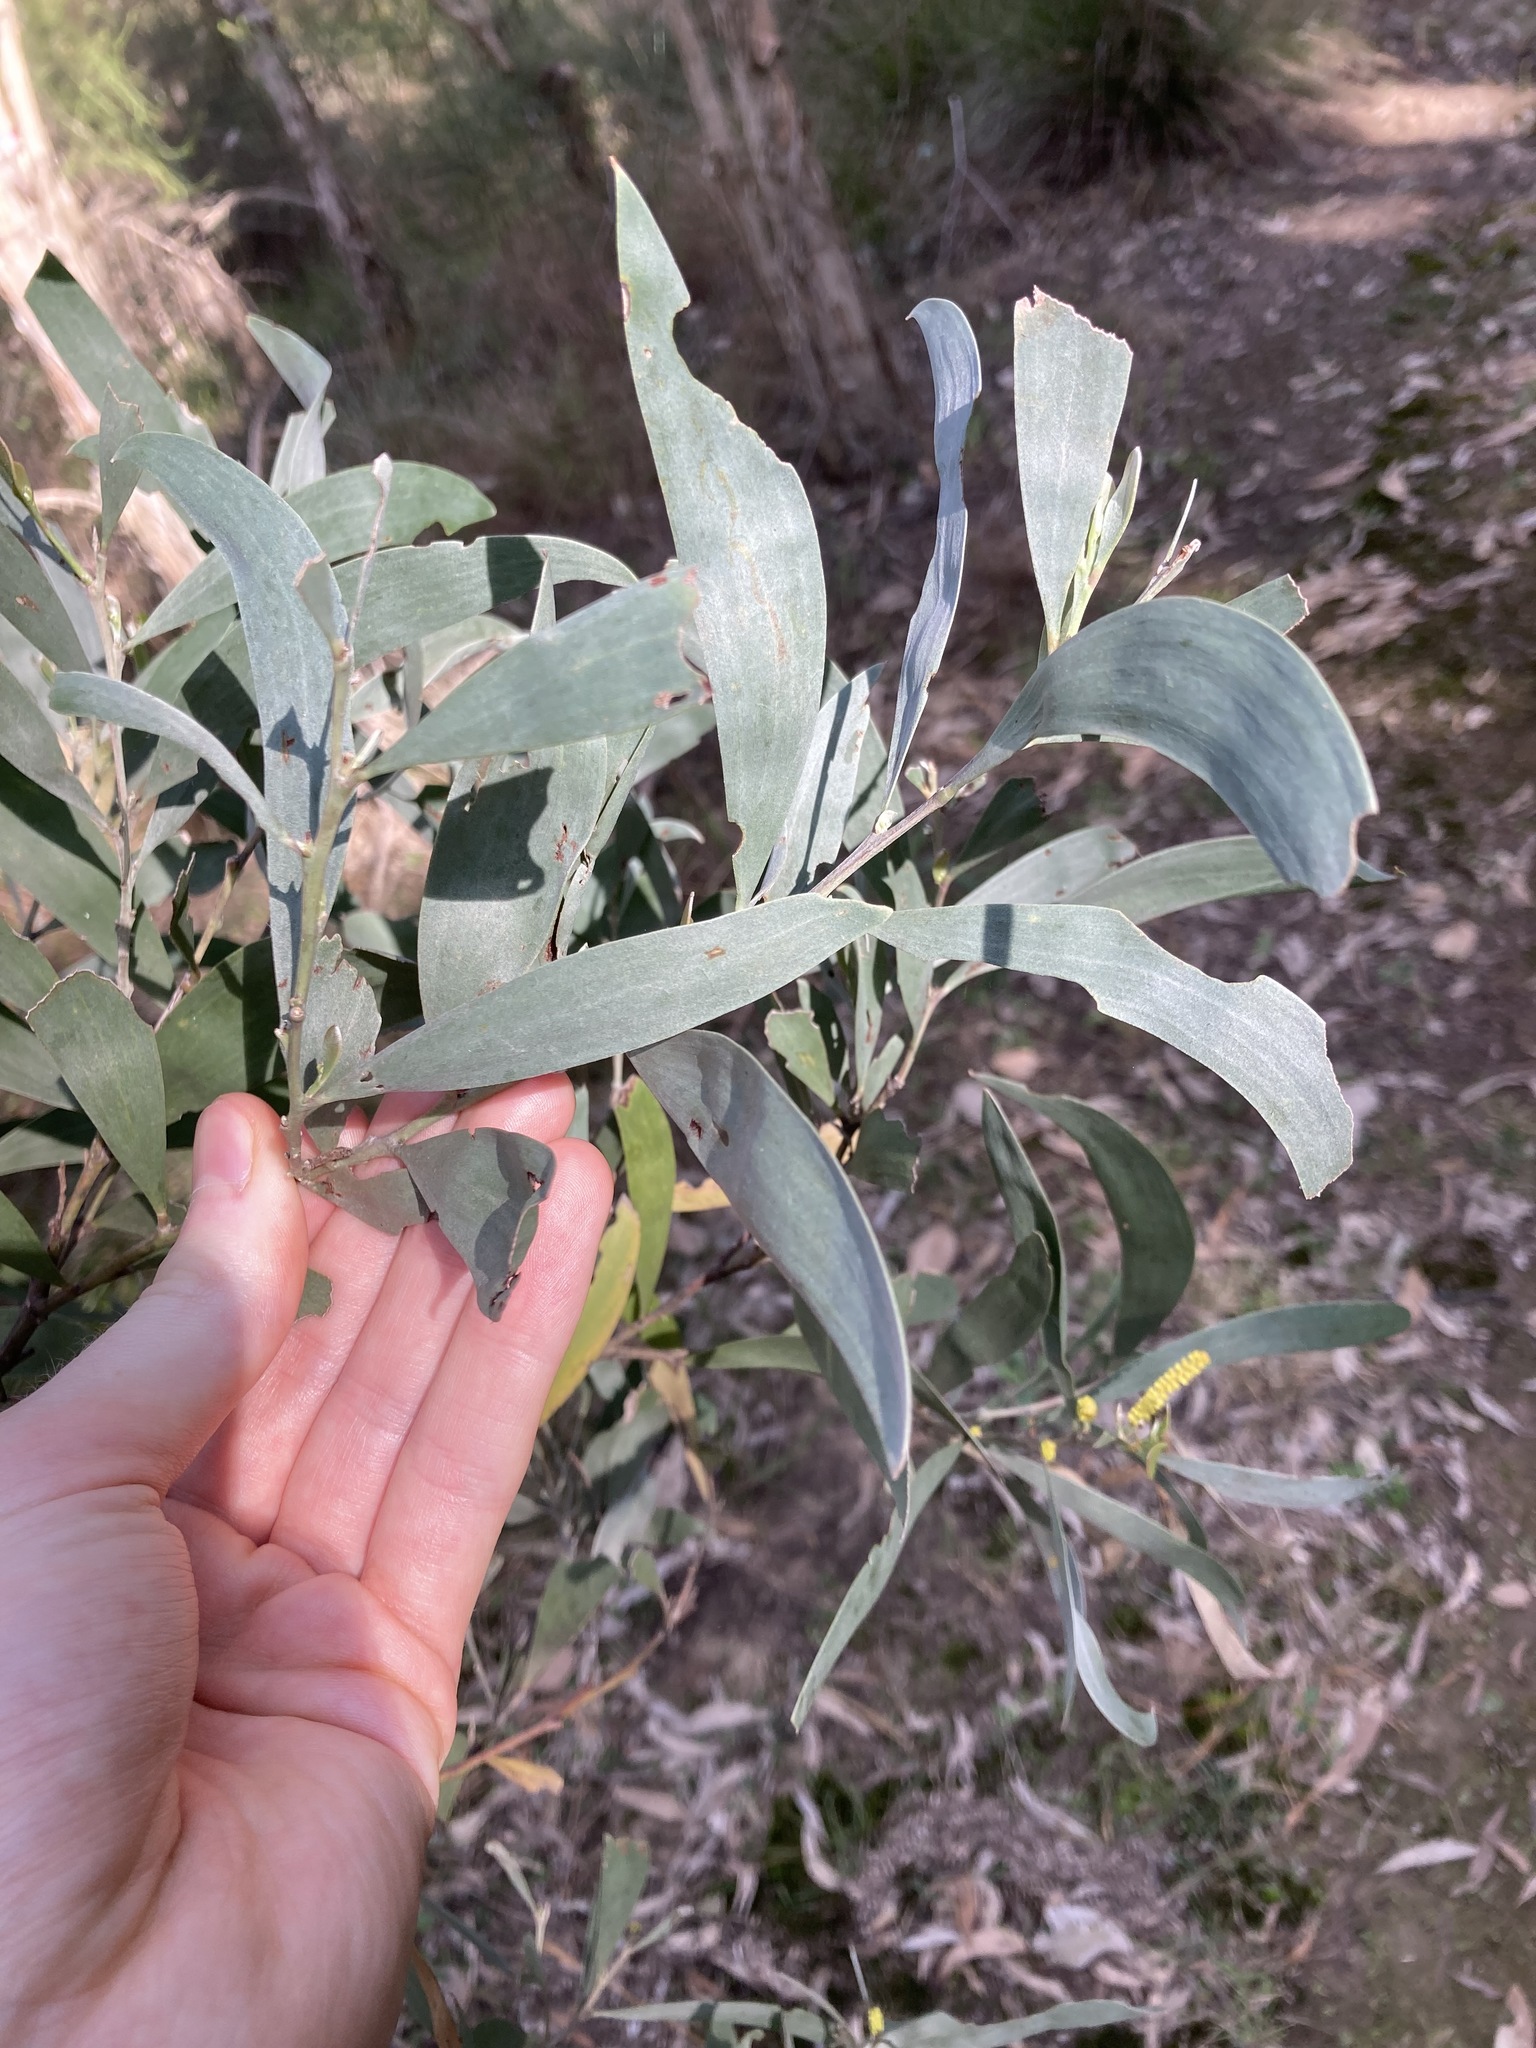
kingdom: Plantae
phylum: Tracheophyta
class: Magnoliopsida
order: Fabales
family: Fabaceae
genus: Acacia
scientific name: Acacia binervia
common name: Coast myall
